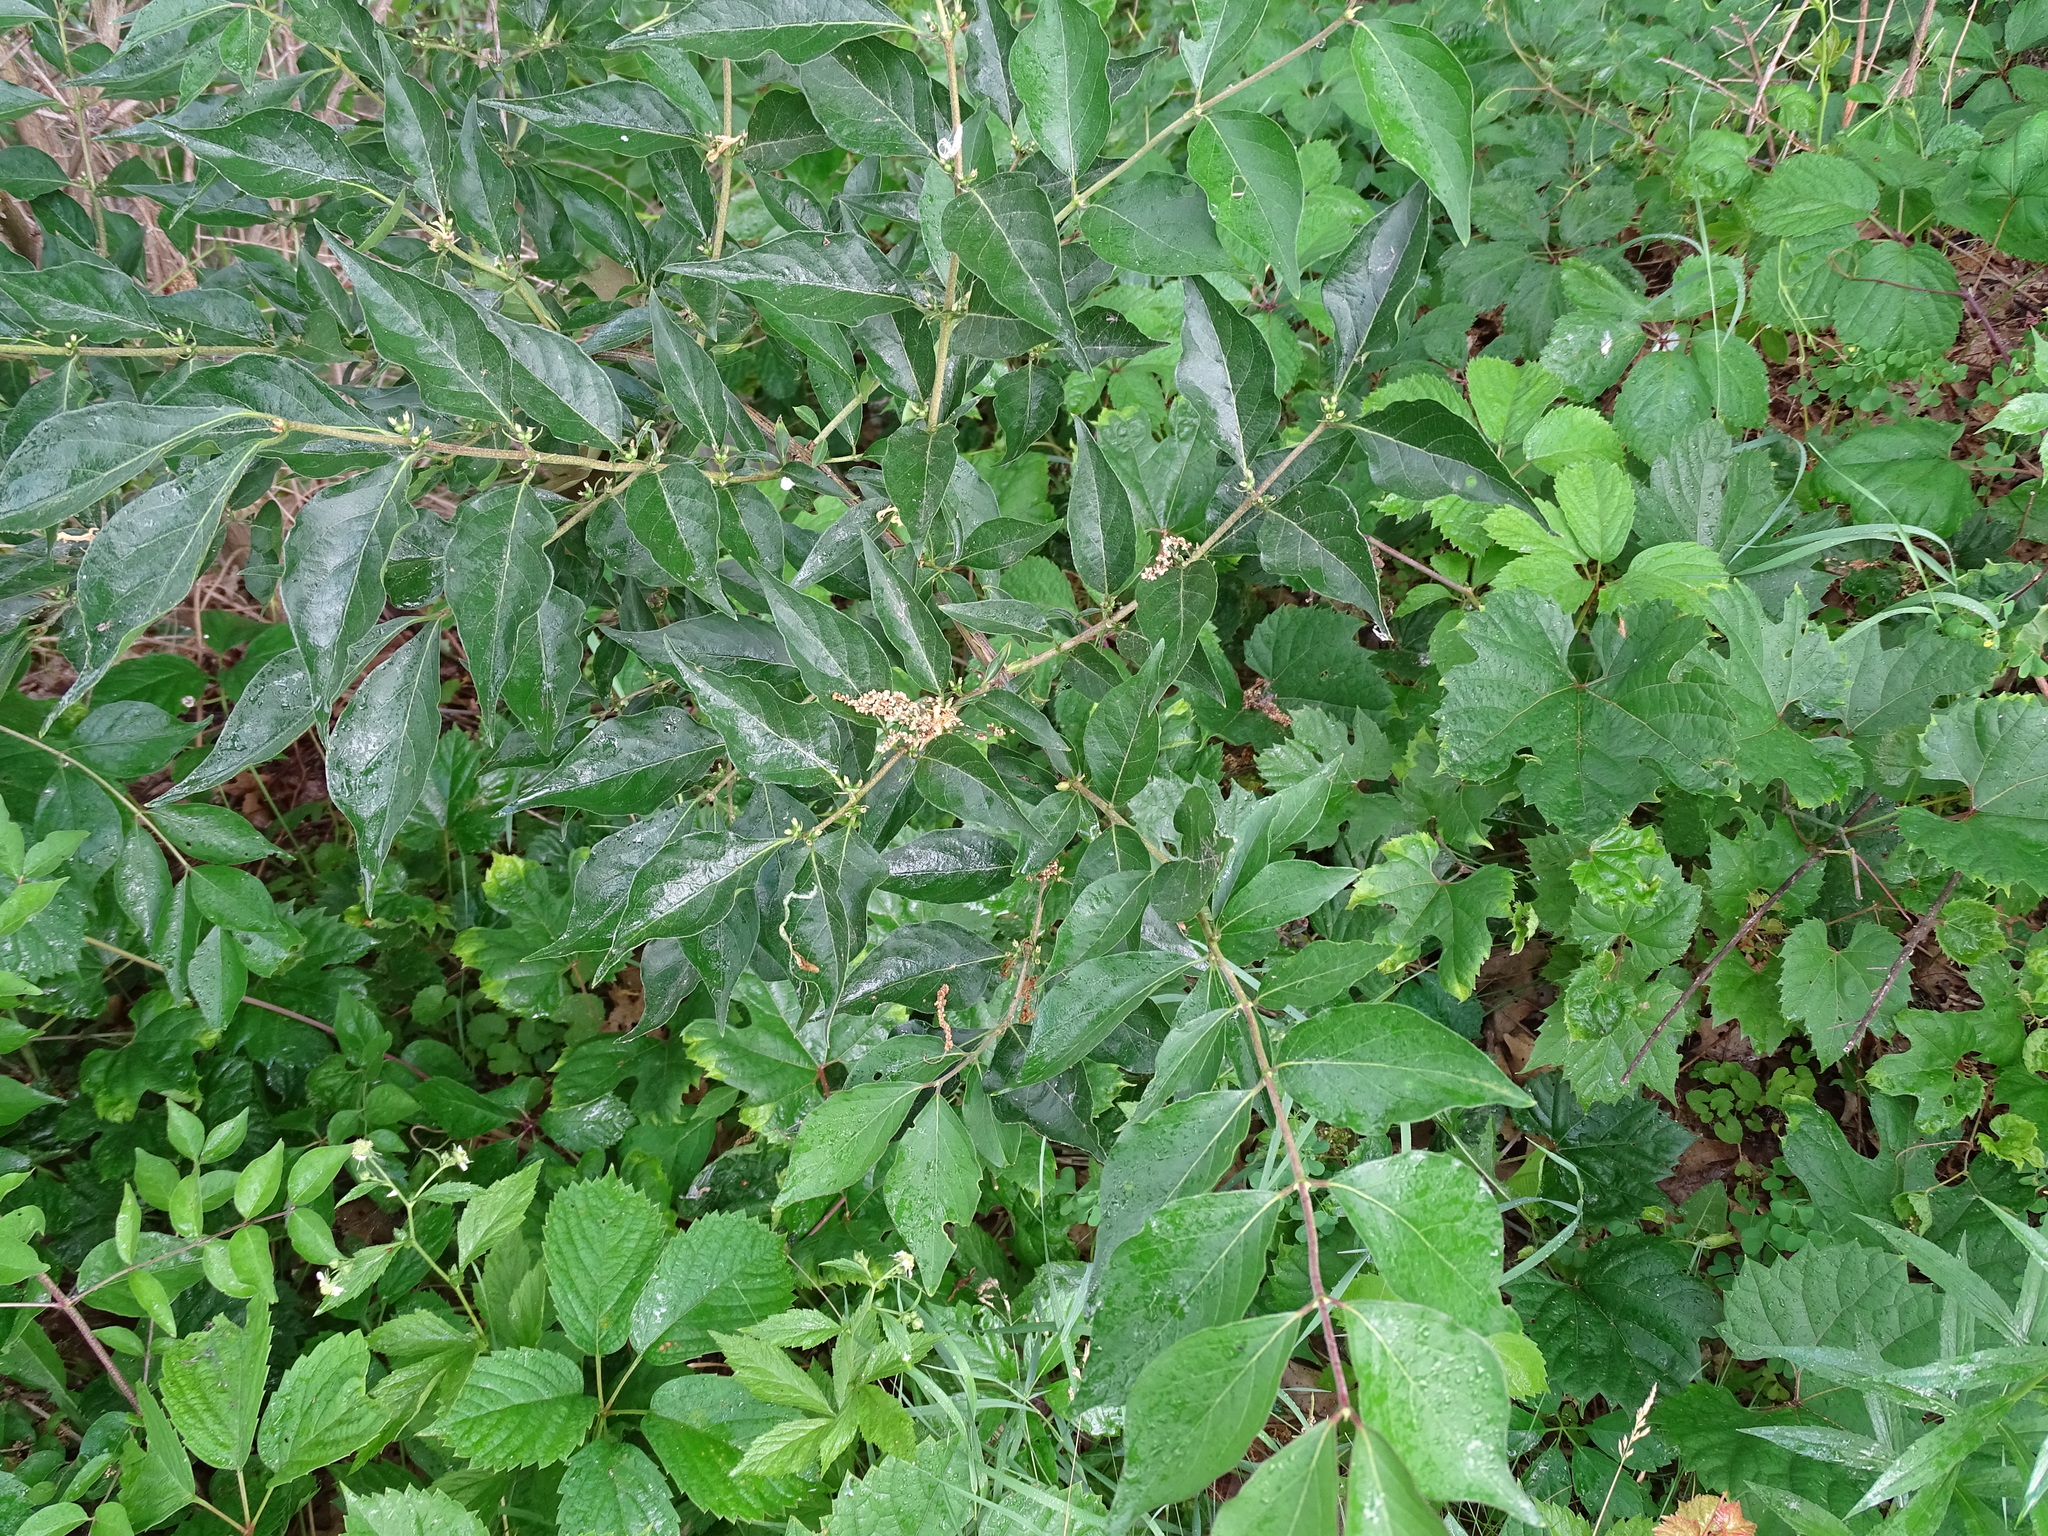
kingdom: Plantae
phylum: Tracheophyta
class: Magnoliopsida
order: Dipsacales
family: Caprifoliaceae
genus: Lonicera
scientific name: Lonicera maackii
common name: Amur honeysuckle
